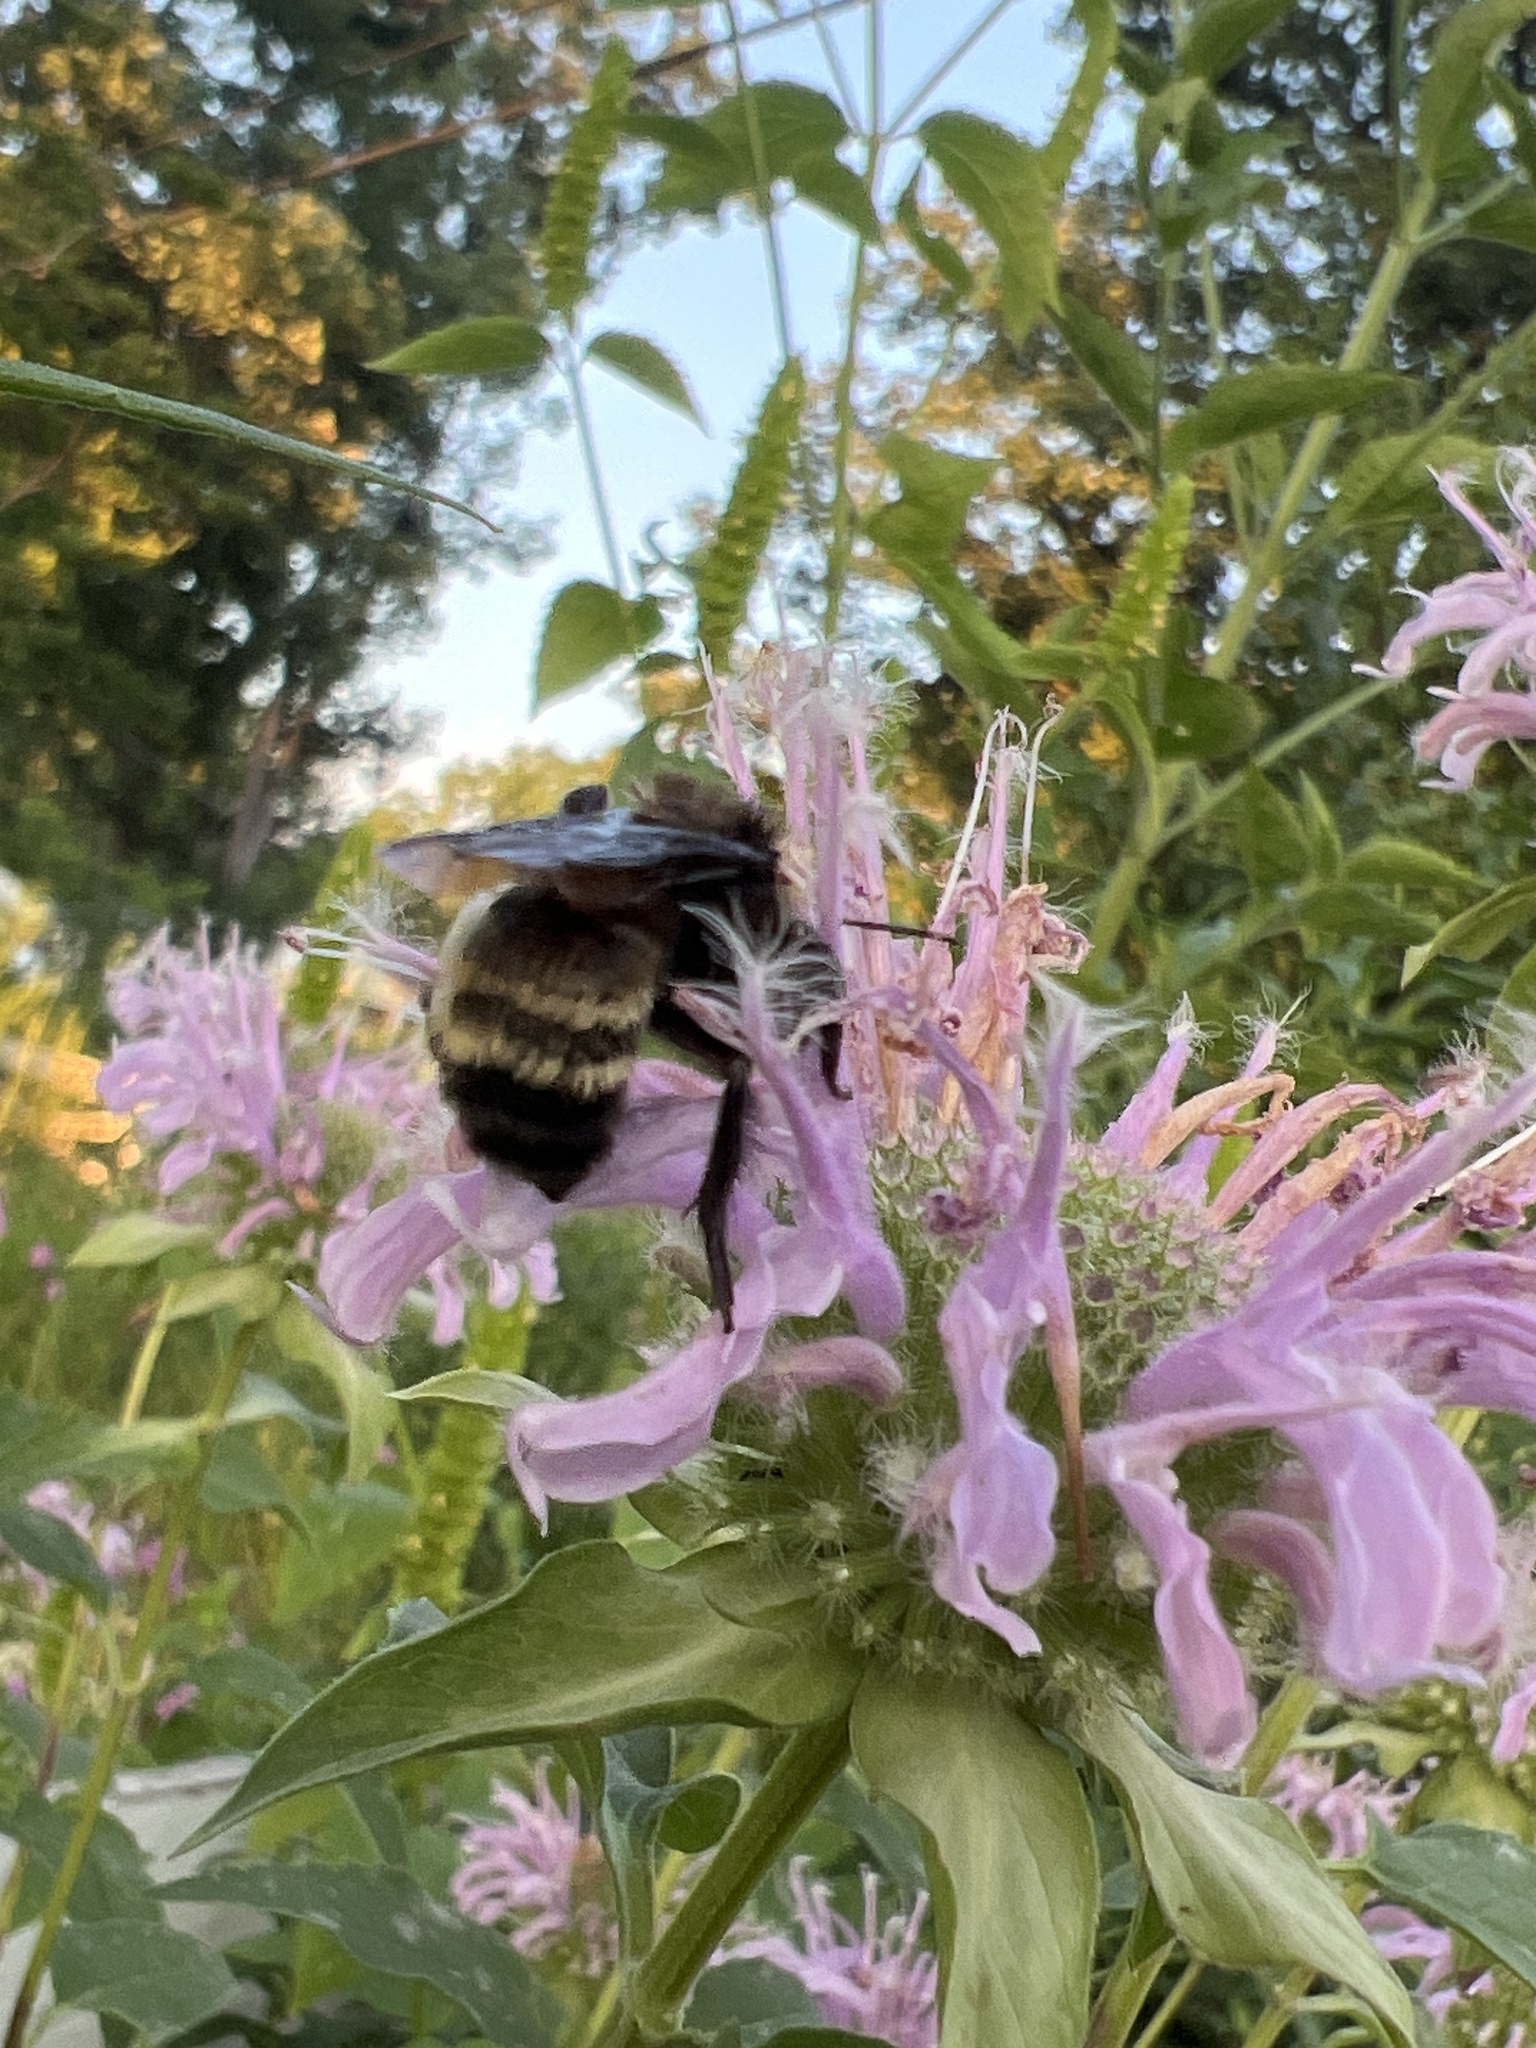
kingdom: Animalia
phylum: Arthropoda
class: Insecta
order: Hymenoptera
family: Apidae
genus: Bombus
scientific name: Bombus pensylvanicus
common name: Bumble bee
